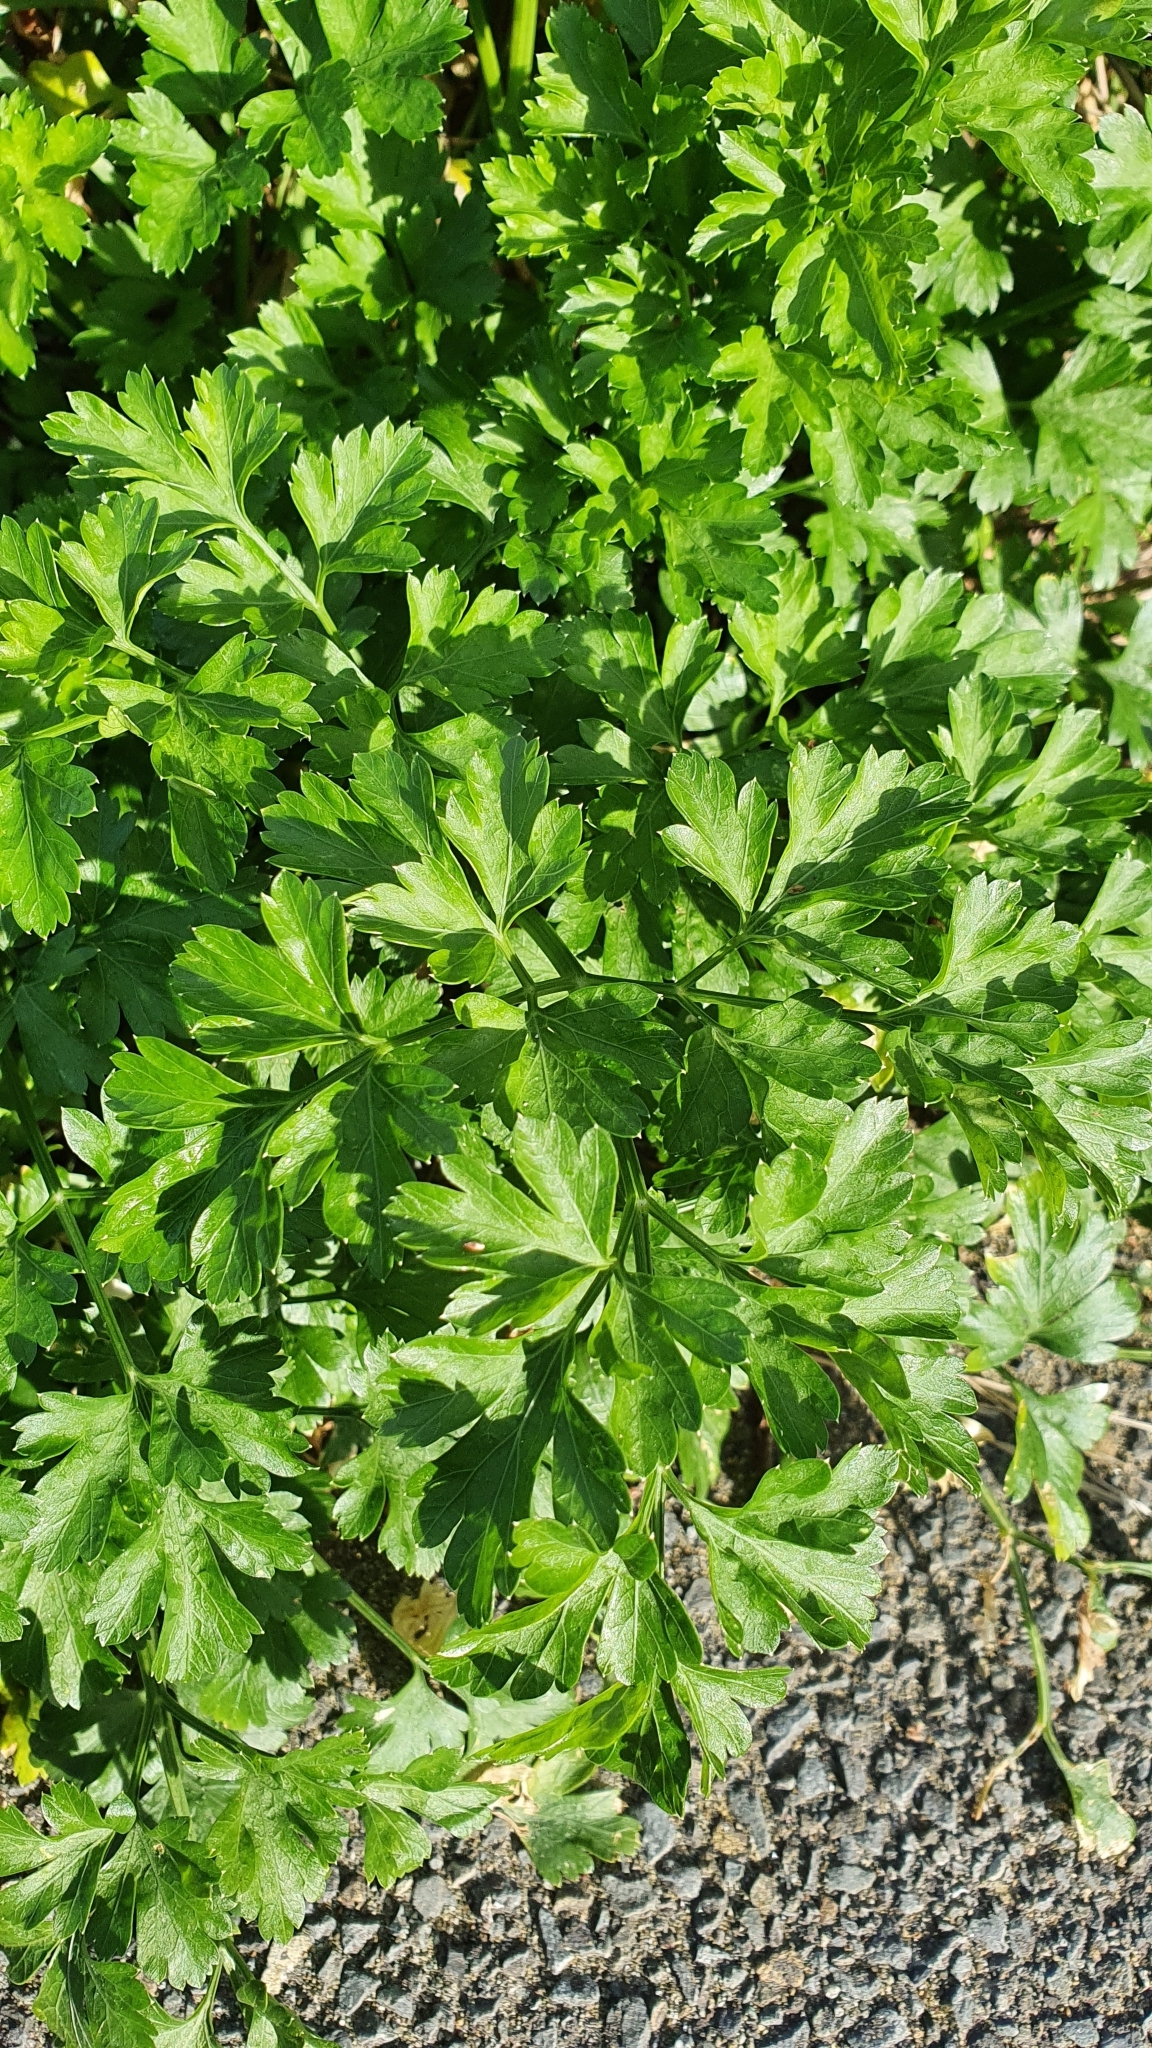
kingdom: Plantae
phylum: Tracheophyta
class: Magnoliopsida
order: Apiales
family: Apiaceae
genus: Petroselinum
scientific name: Petroselinum crispum
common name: Parsley
